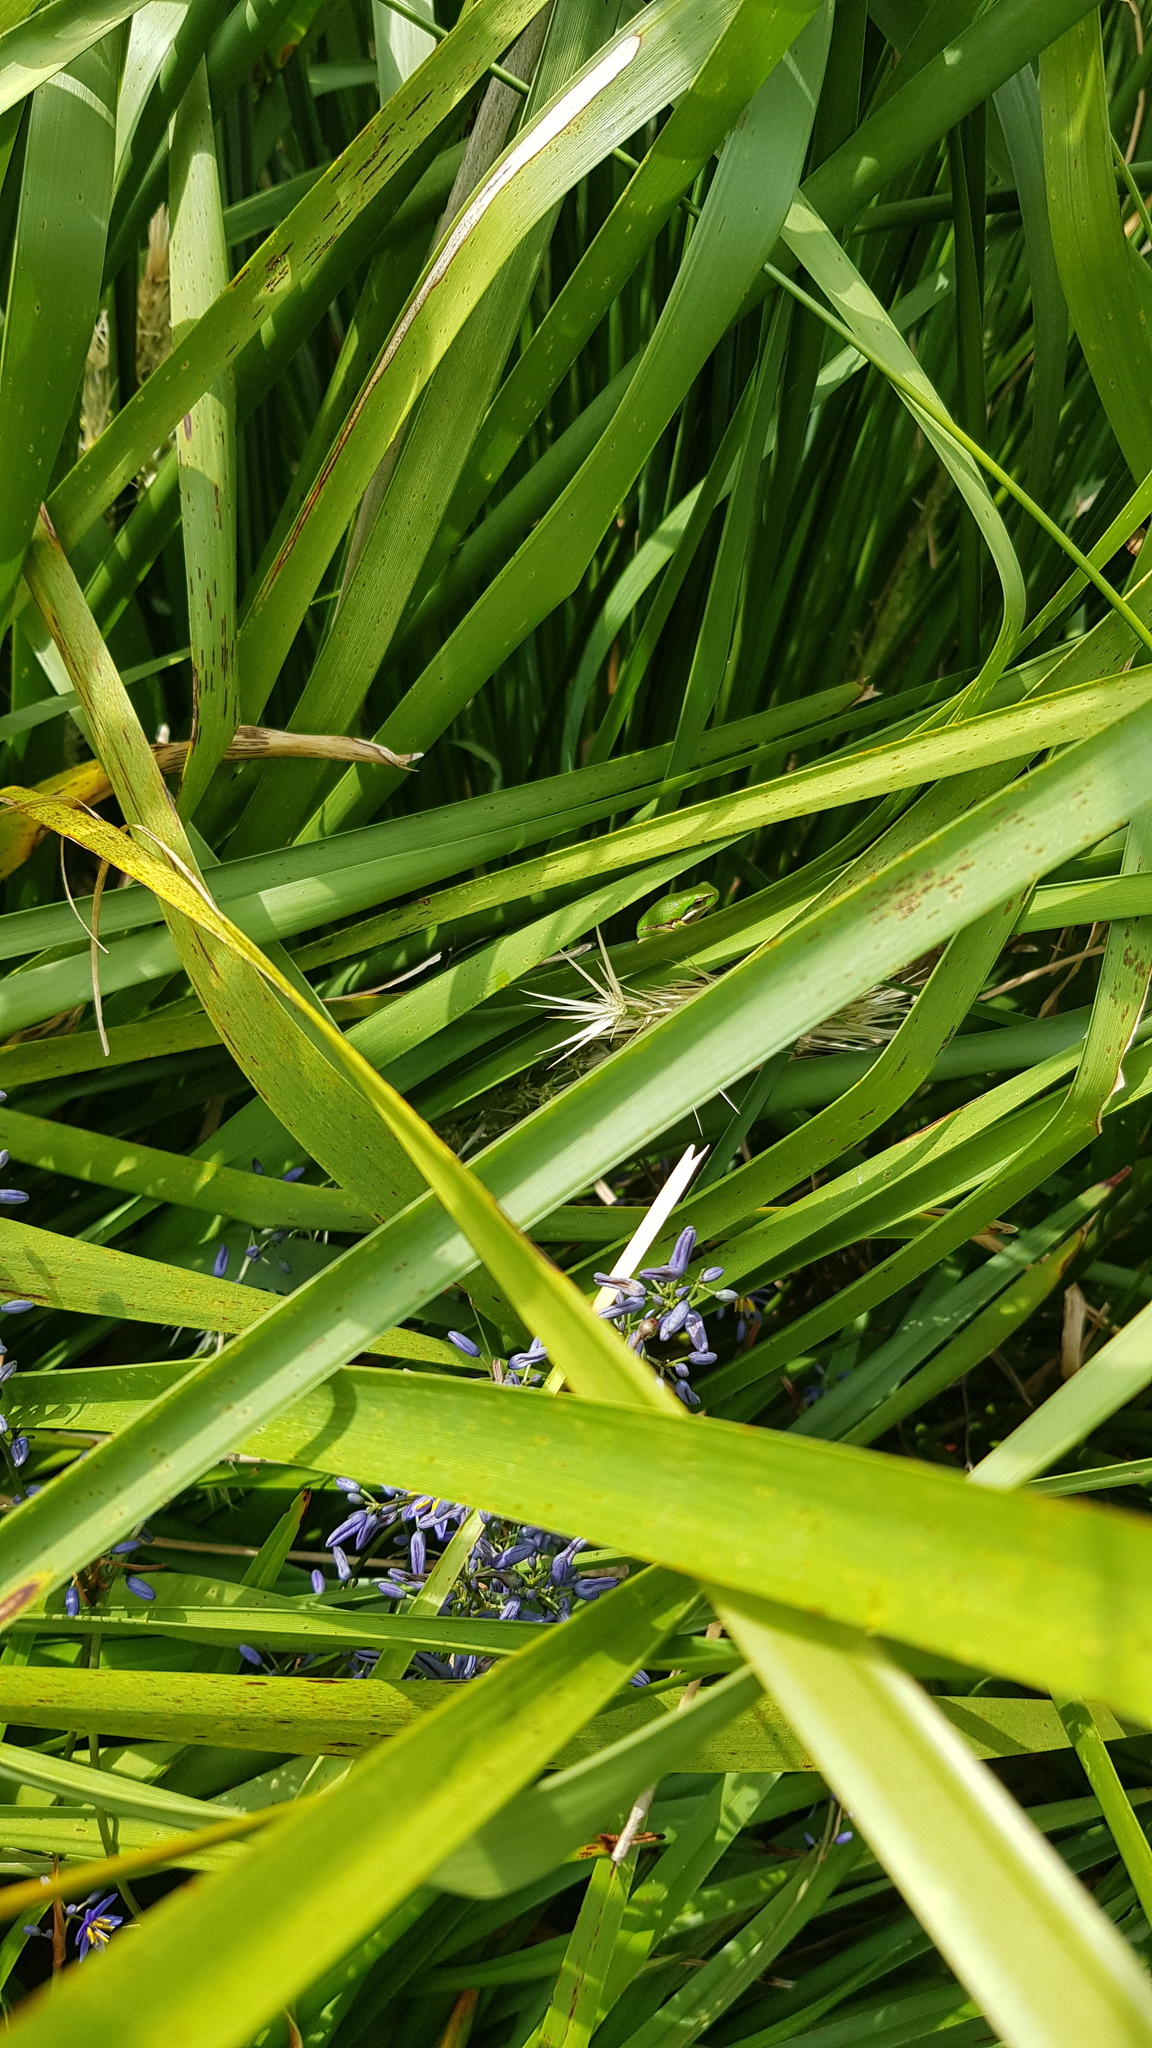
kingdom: Animalia
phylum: Chordata
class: Amphibia
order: Anura
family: Pelodryadidae
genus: Litoria
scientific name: Litoria fallax
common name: Eastern dwarf treefrog
